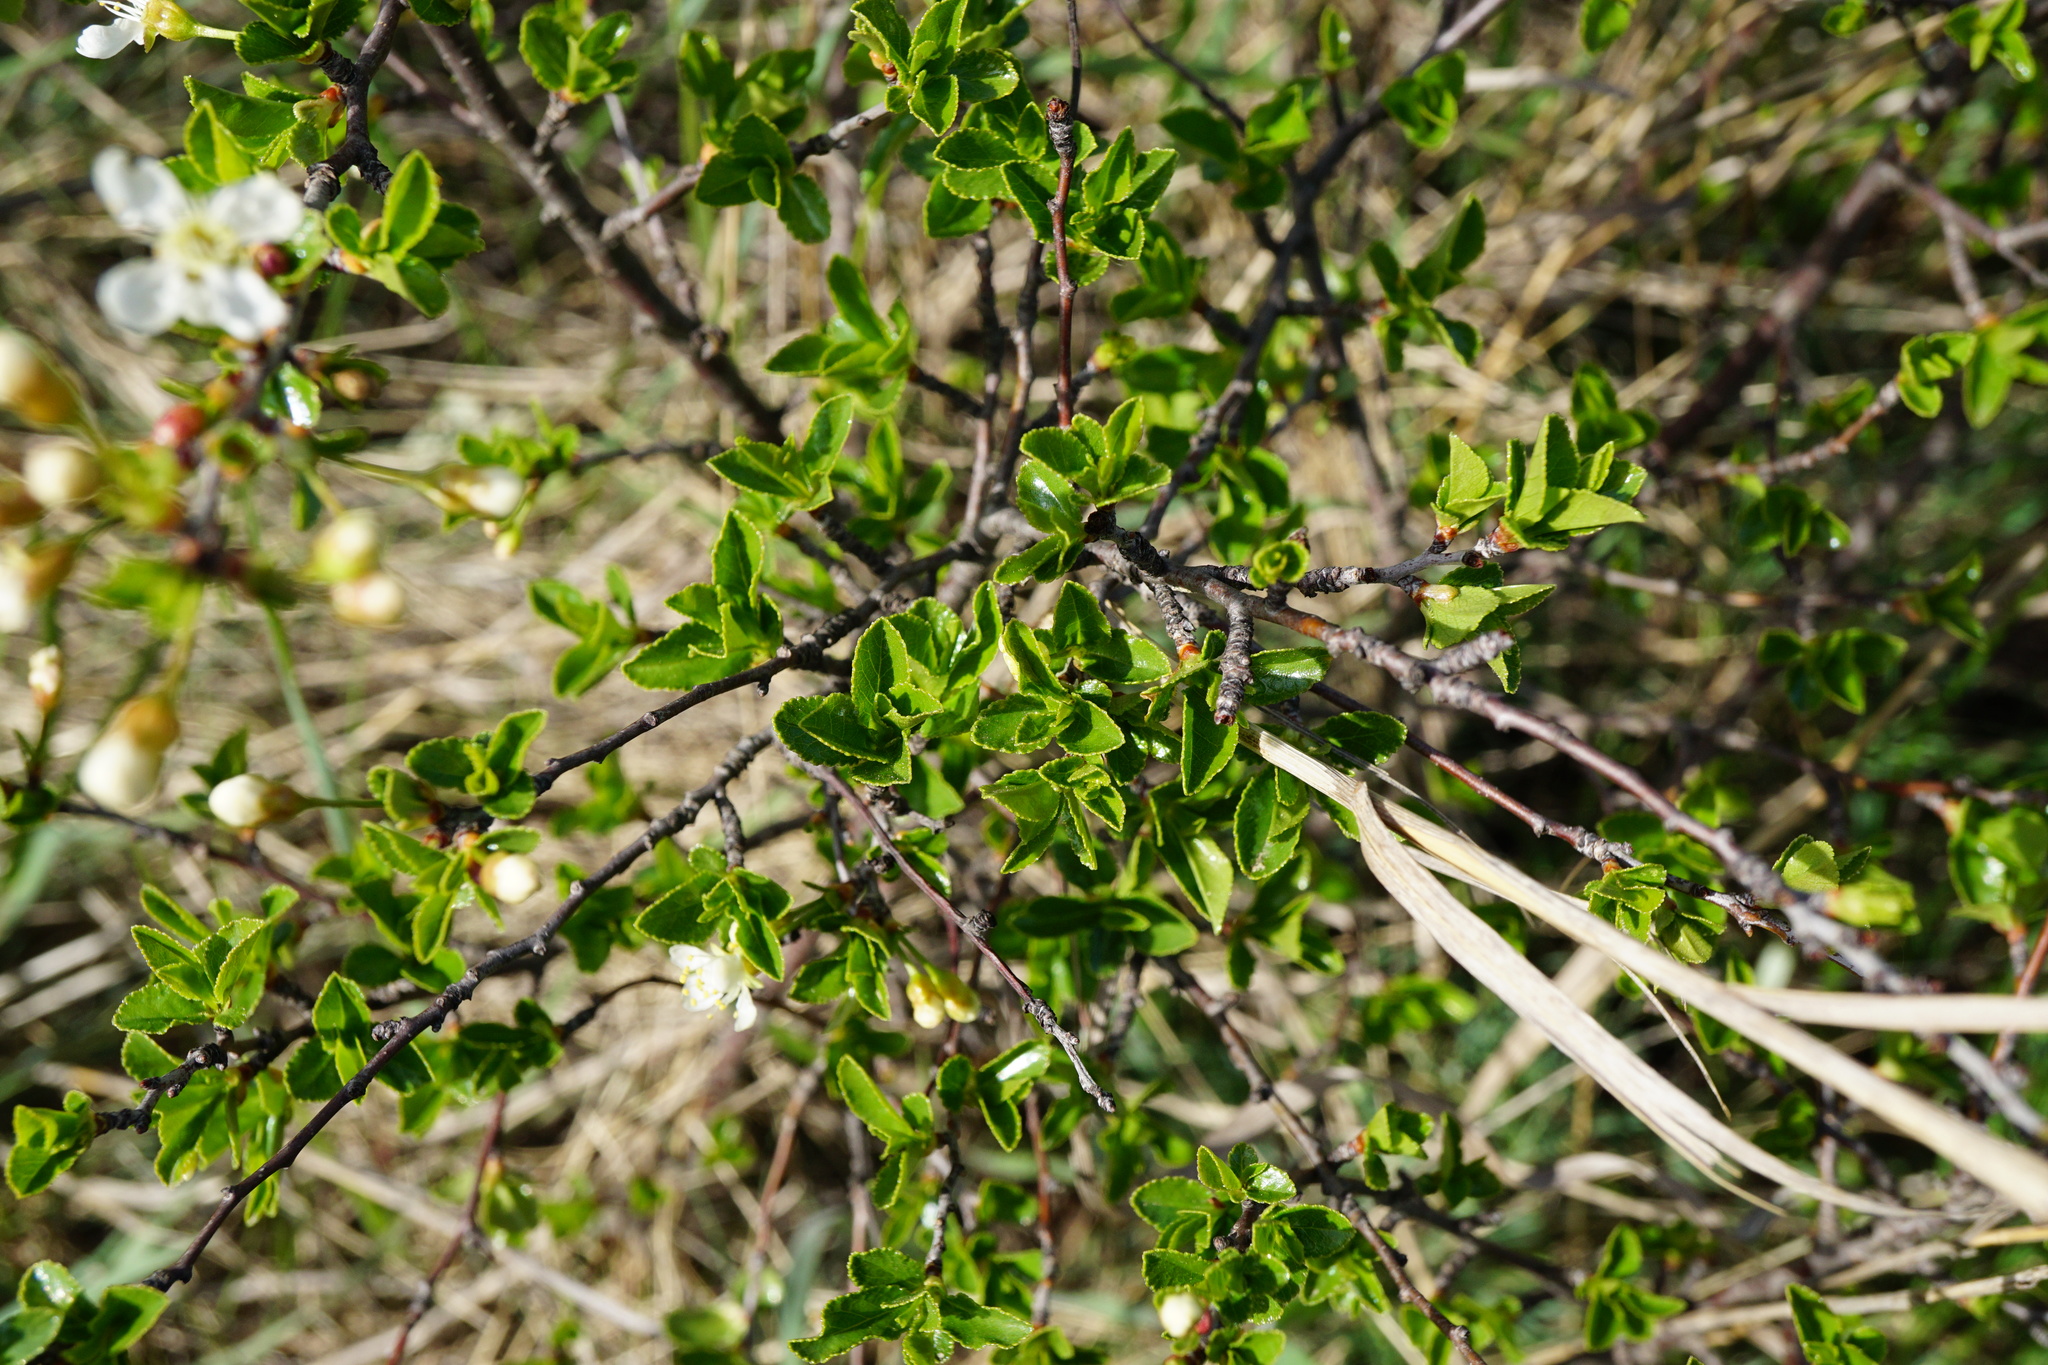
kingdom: Plantae
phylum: Tracheophyta
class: Magnoliopsida
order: Rosales
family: Rosaceae
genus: Prunus
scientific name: Prunus fruticosa
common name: European dwarf cherry
